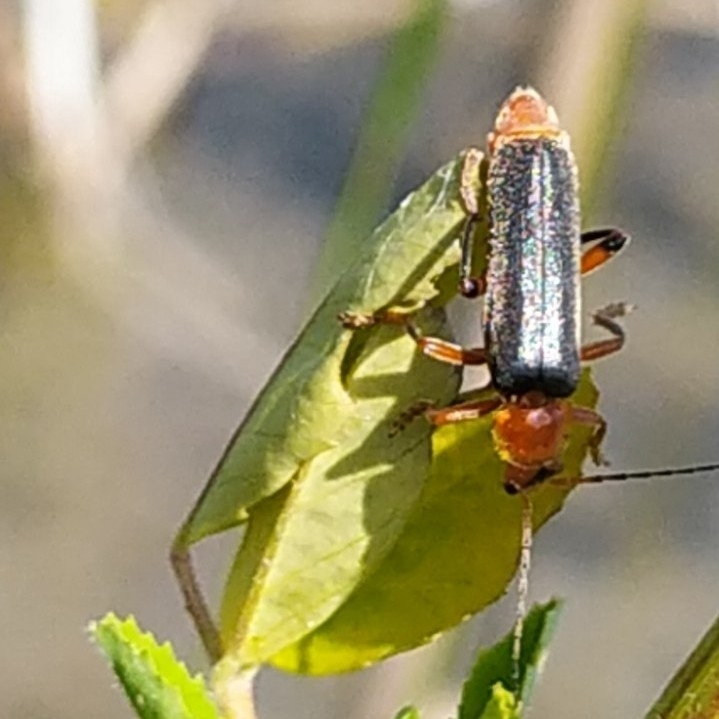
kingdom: Animalia
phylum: Arthropoda
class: Insecta
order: Coleoptera
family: Cantharidae
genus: Cantharis
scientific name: Cantharis livida
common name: Livid soldier beetle
